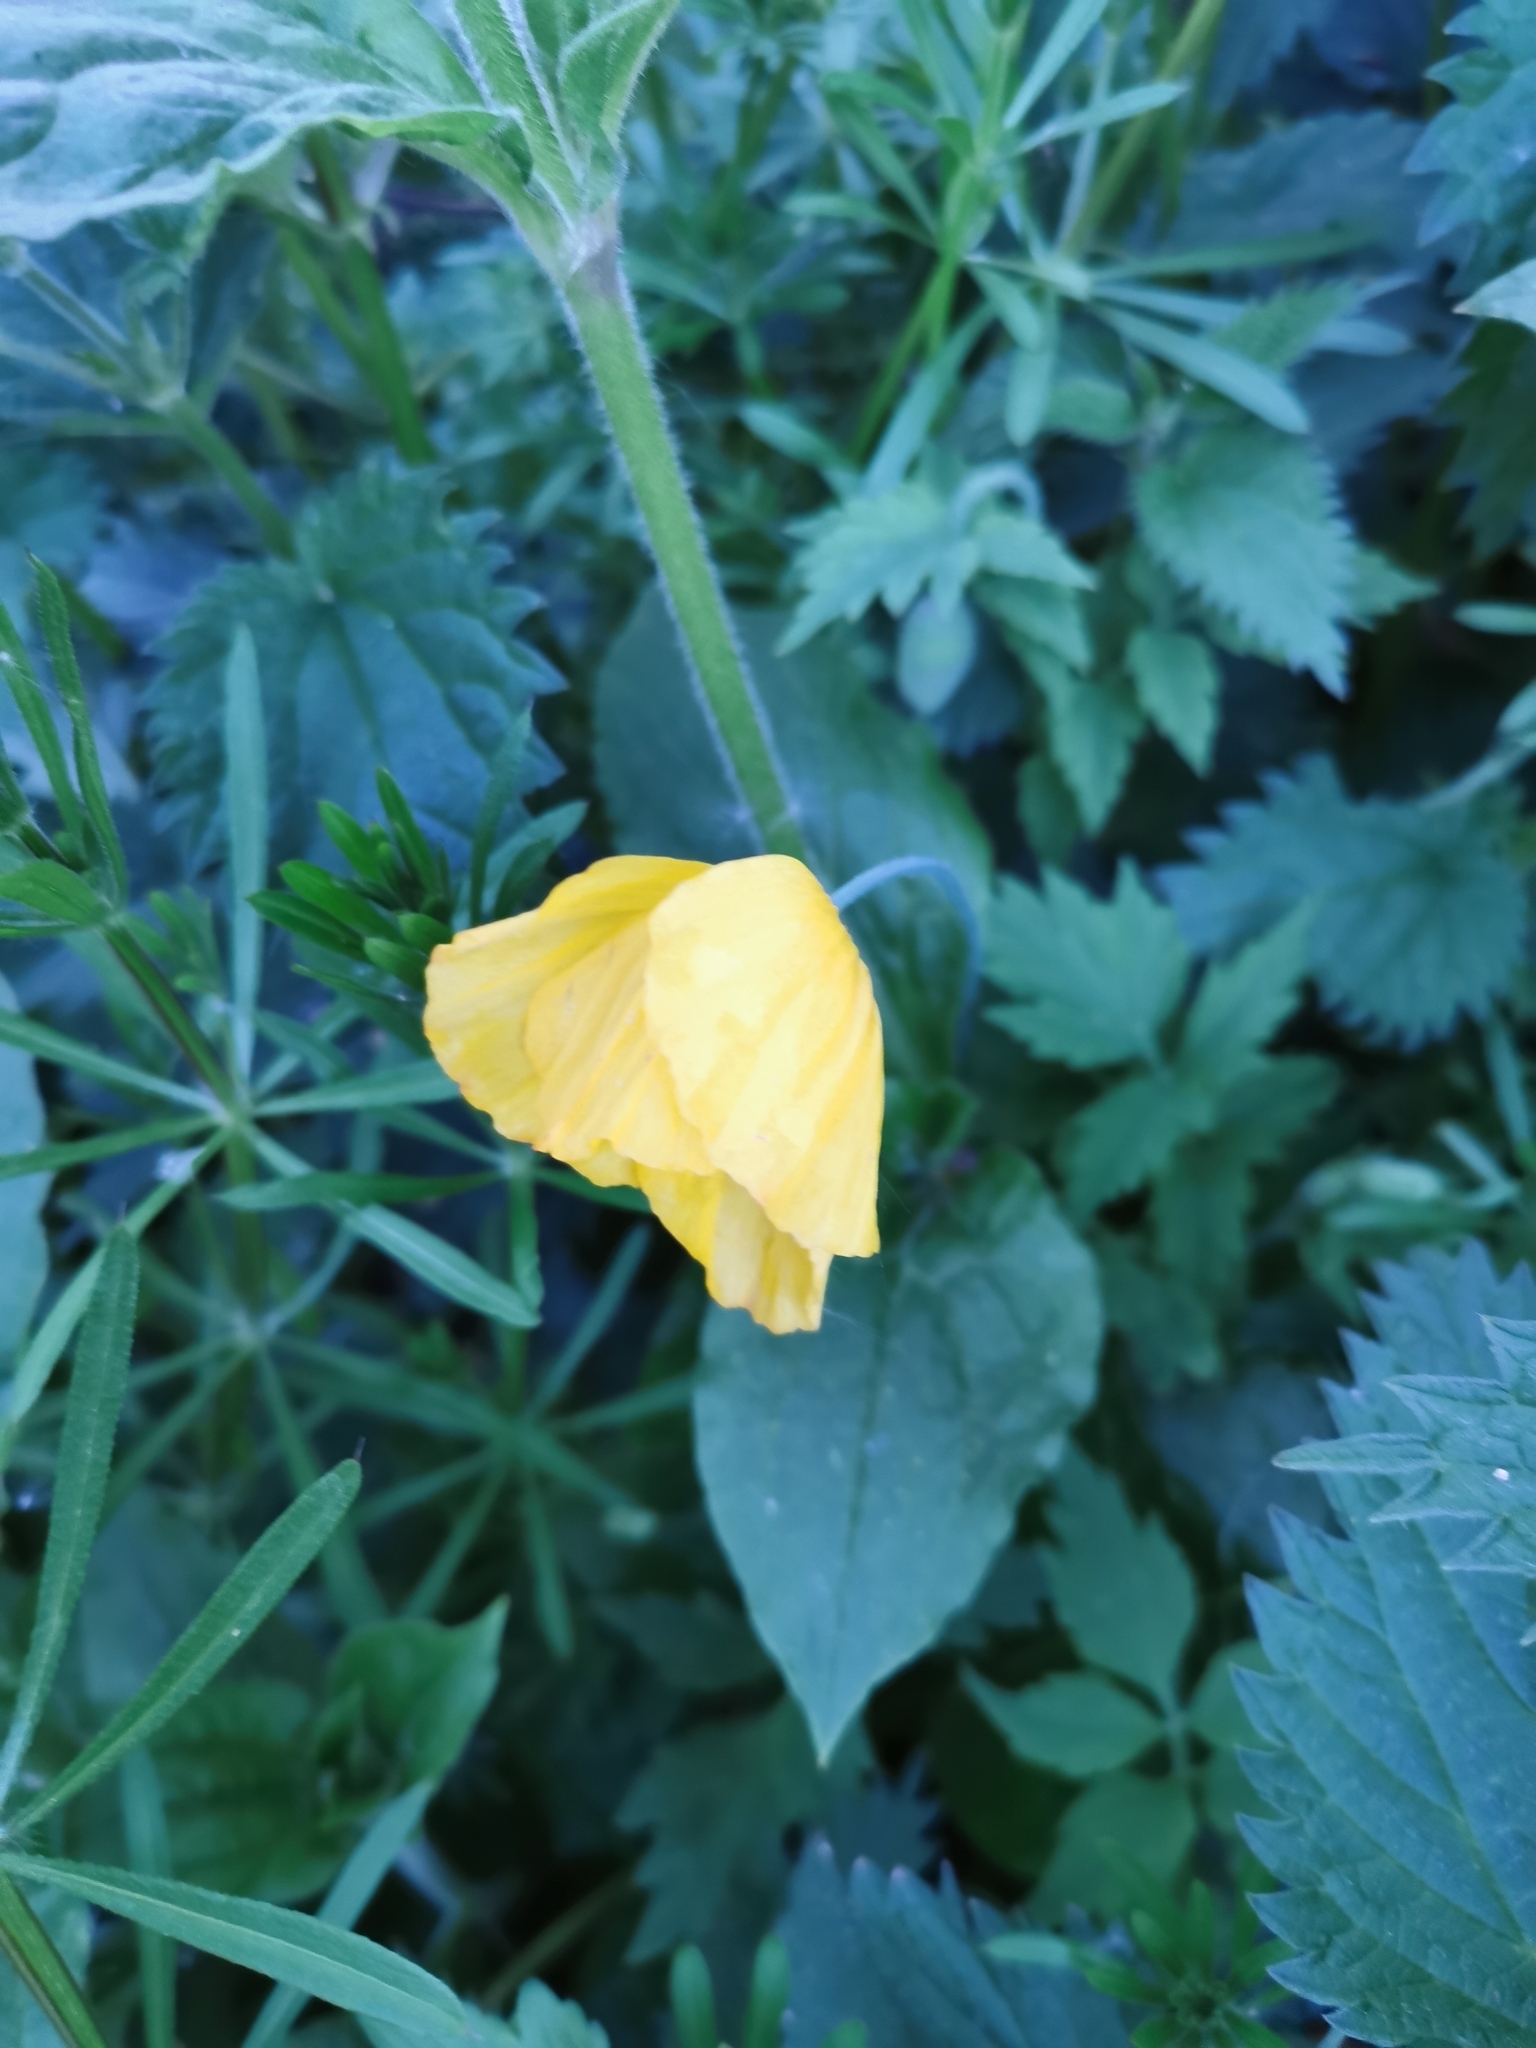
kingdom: Plantae
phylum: Tracheophyta
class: Magnoliopsida
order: Ranunculales
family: Papaveraceae
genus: Papaver
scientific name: Papaver cambricum
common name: Poppy
